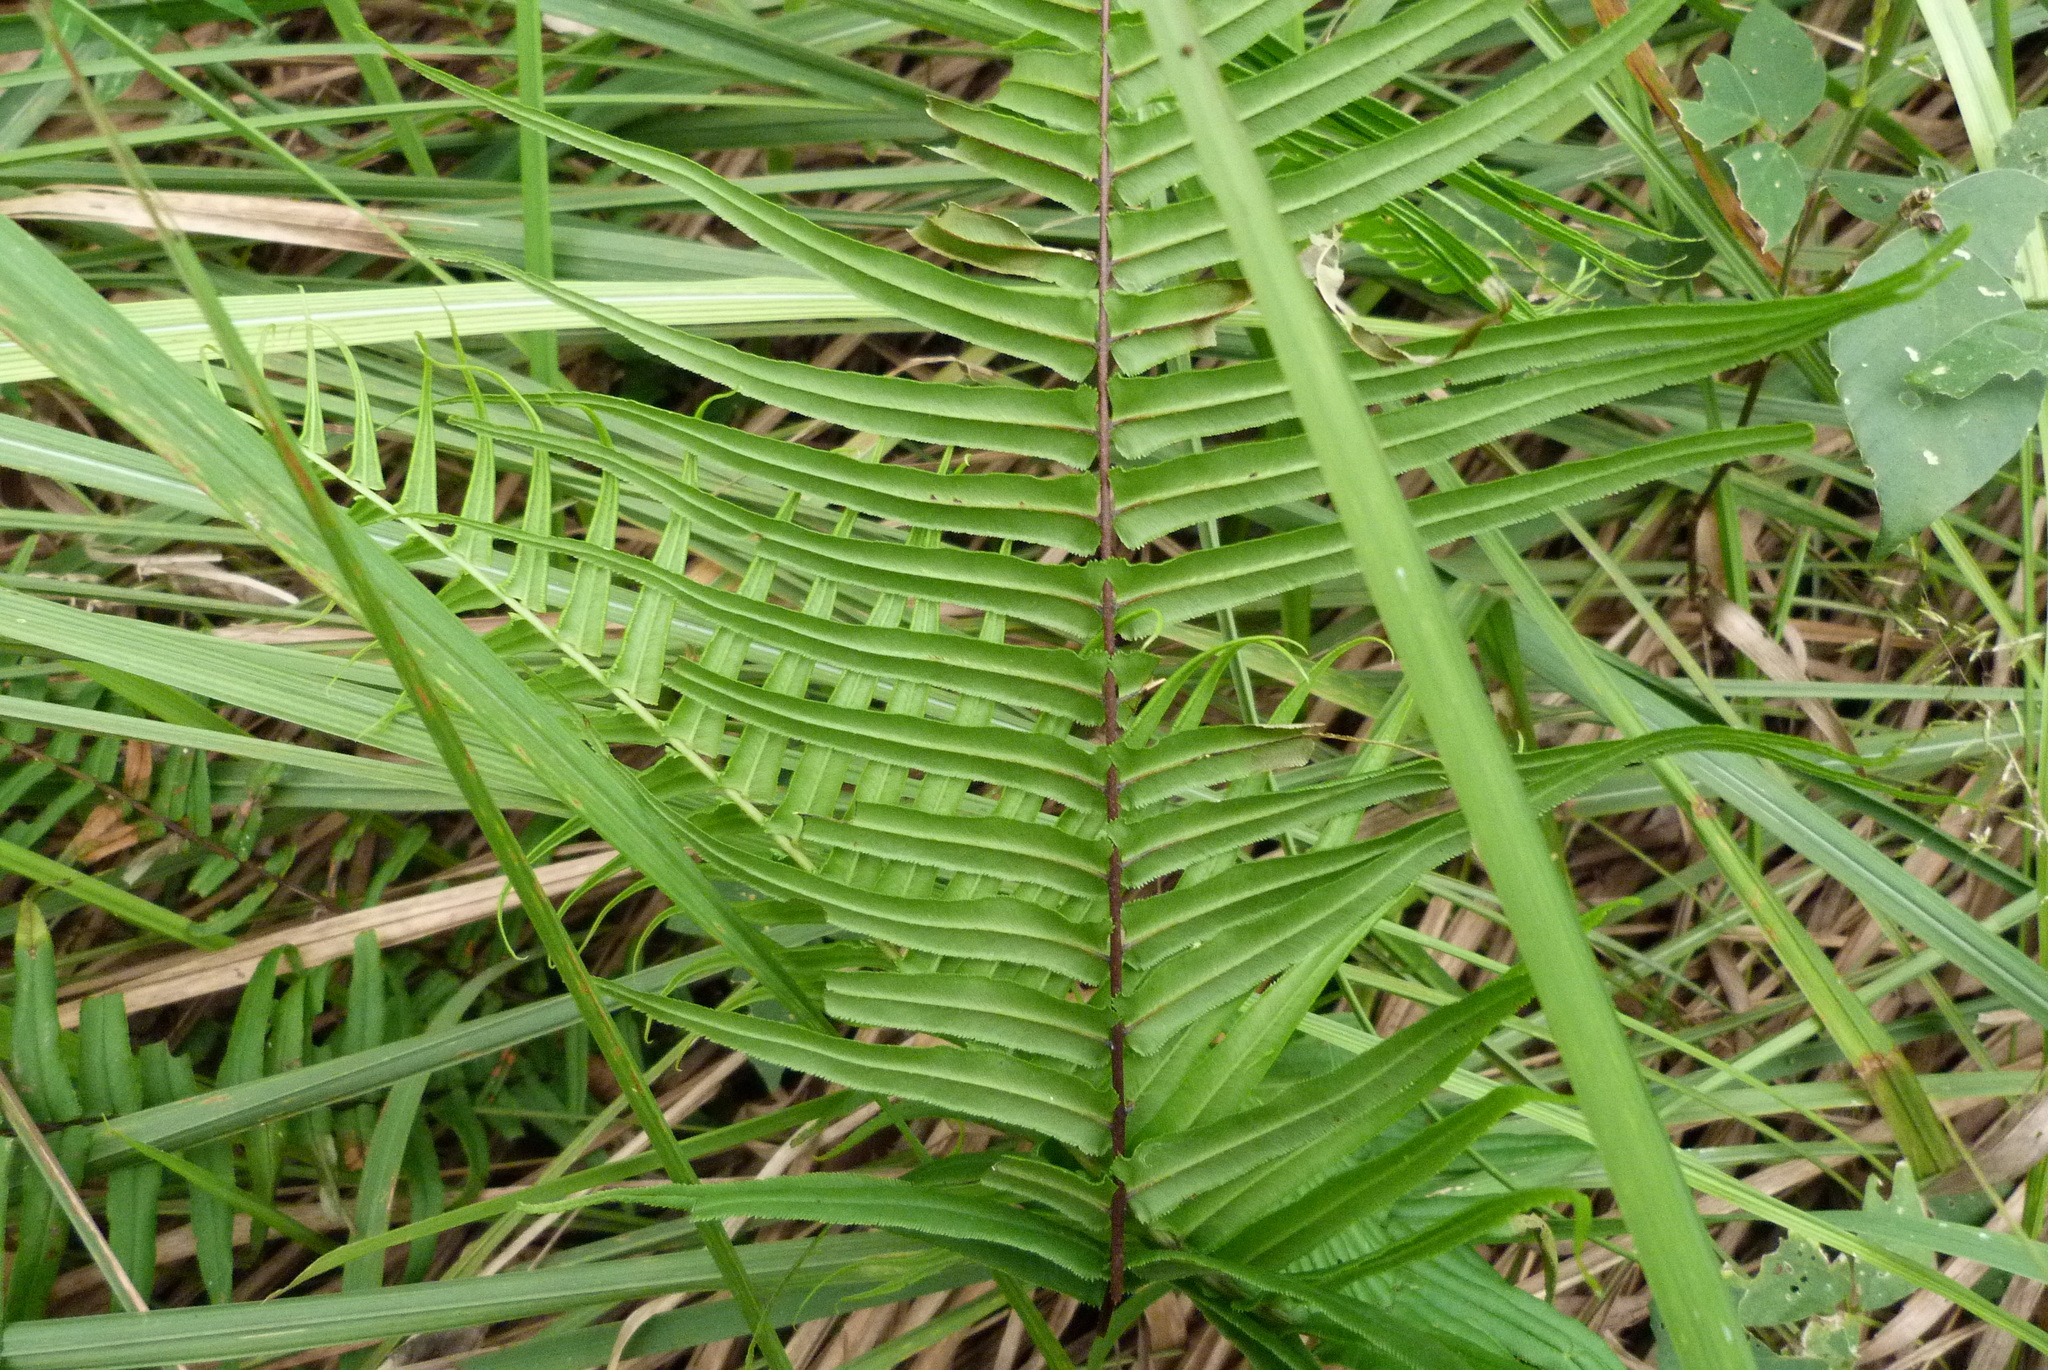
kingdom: Plantae
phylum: Tracheophyta
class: Polypodiopsida
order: Polypodiales
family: Pteridaceae
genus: Pteris
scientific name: Pteris vittata
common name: Ladder brake
